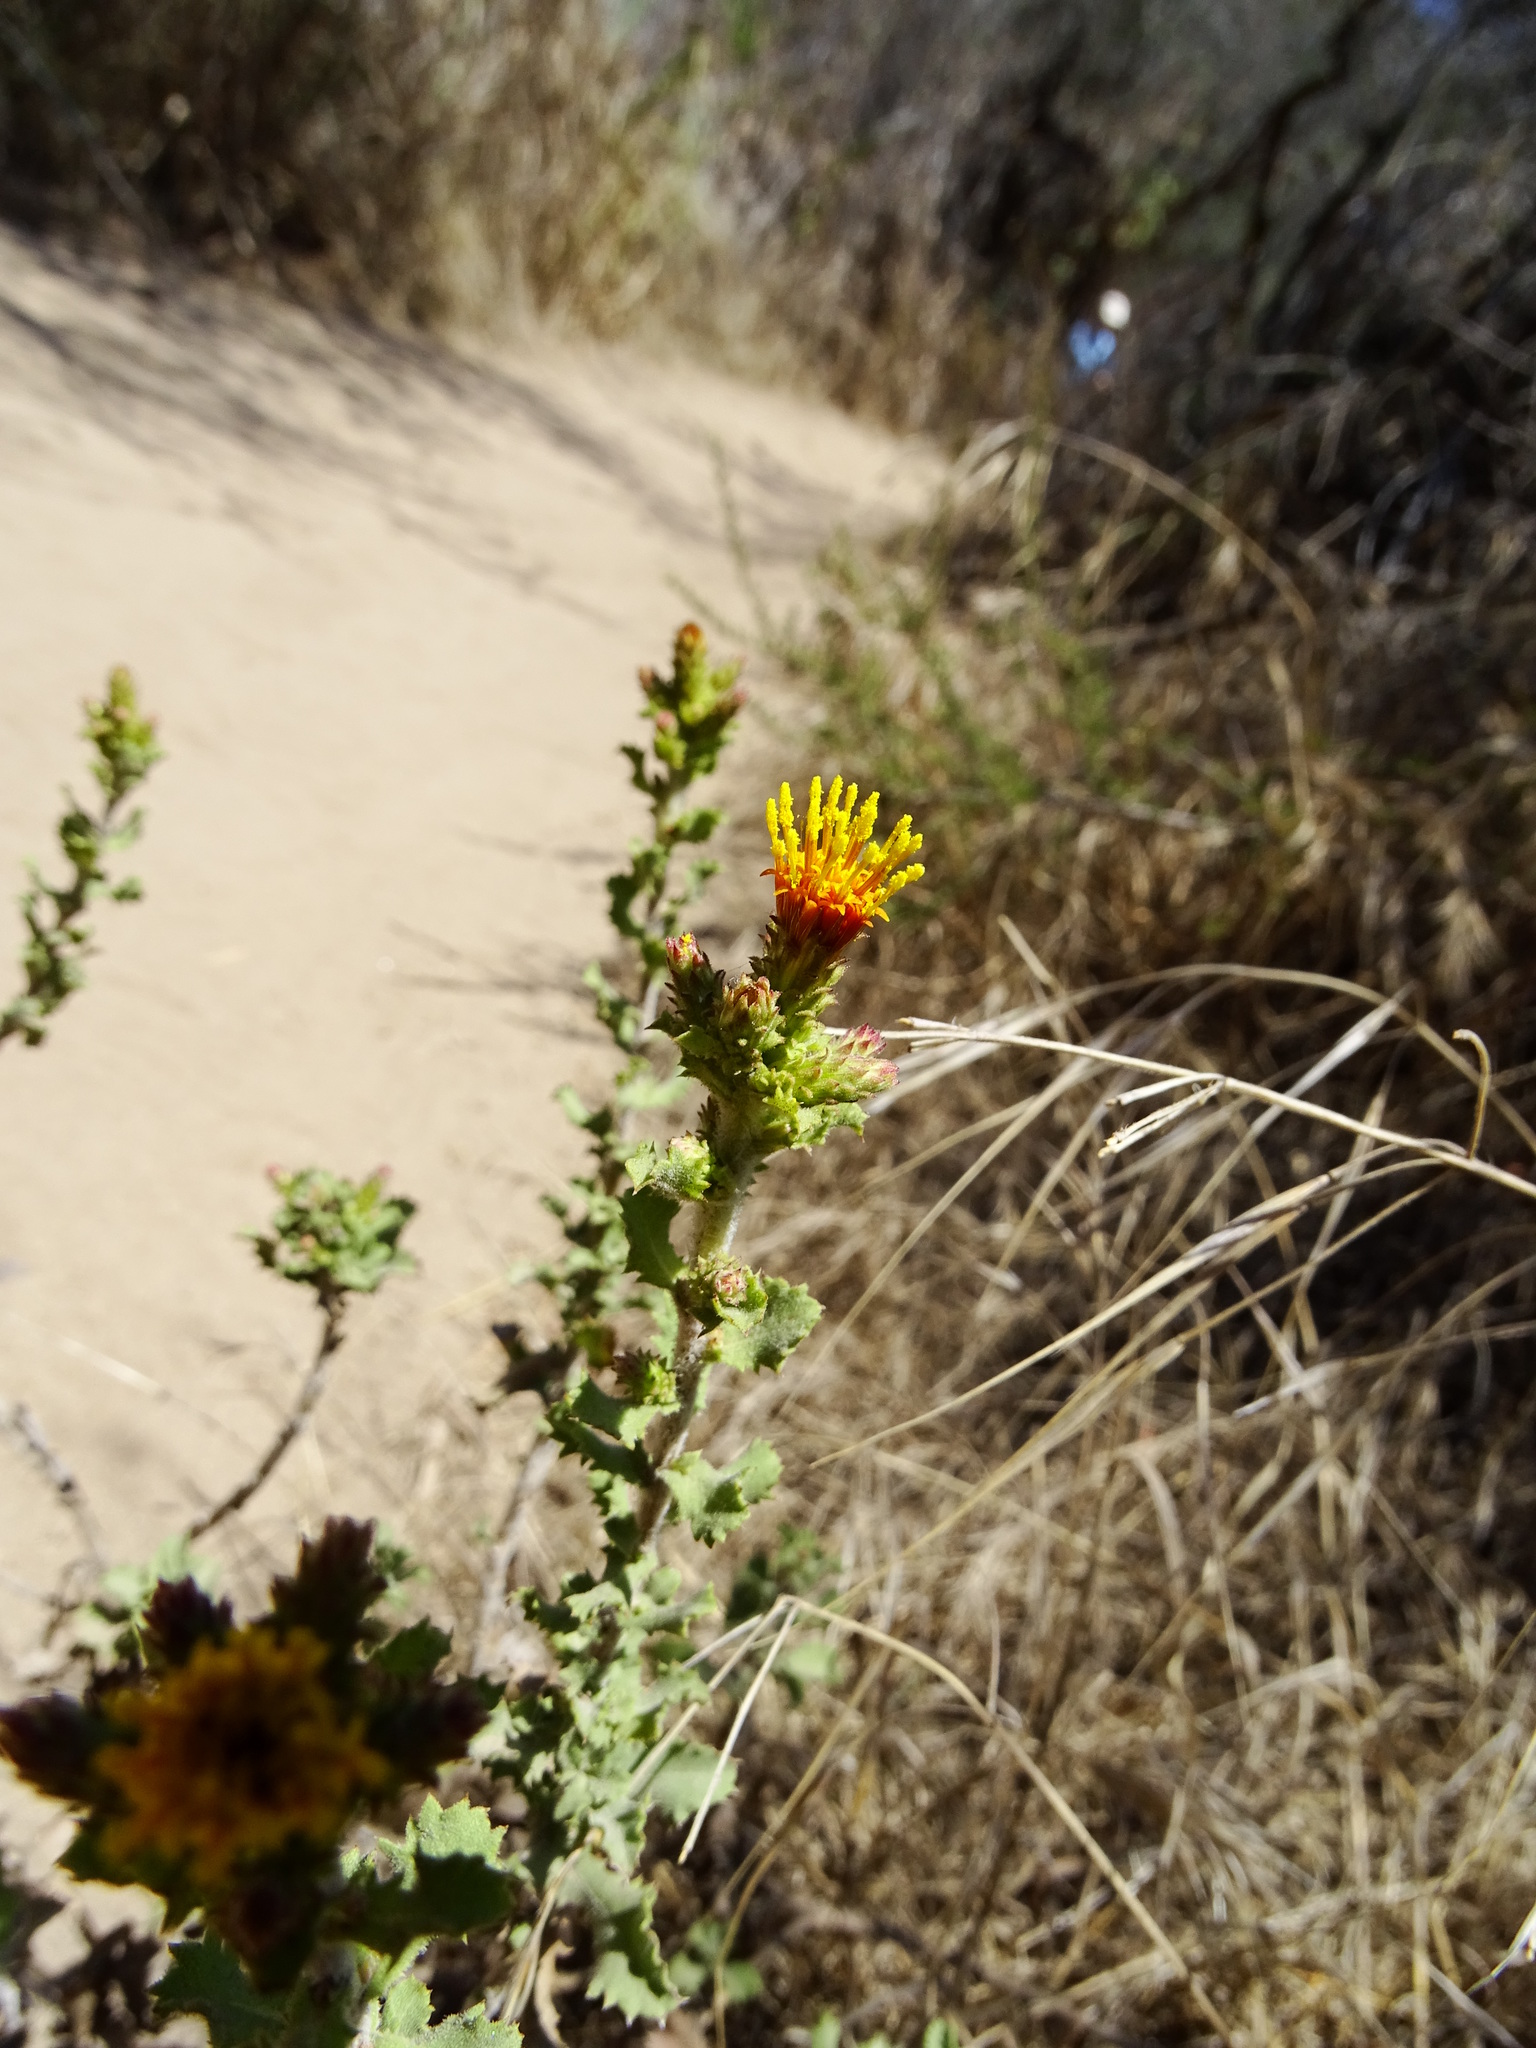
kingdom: Plantae
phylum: Tracheophyta
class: Magnoliopsida
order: Asterales
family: Asteraceae
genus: Hazardia
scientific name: Hazardia squarrosa
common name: Saw-tooth goldenbush
